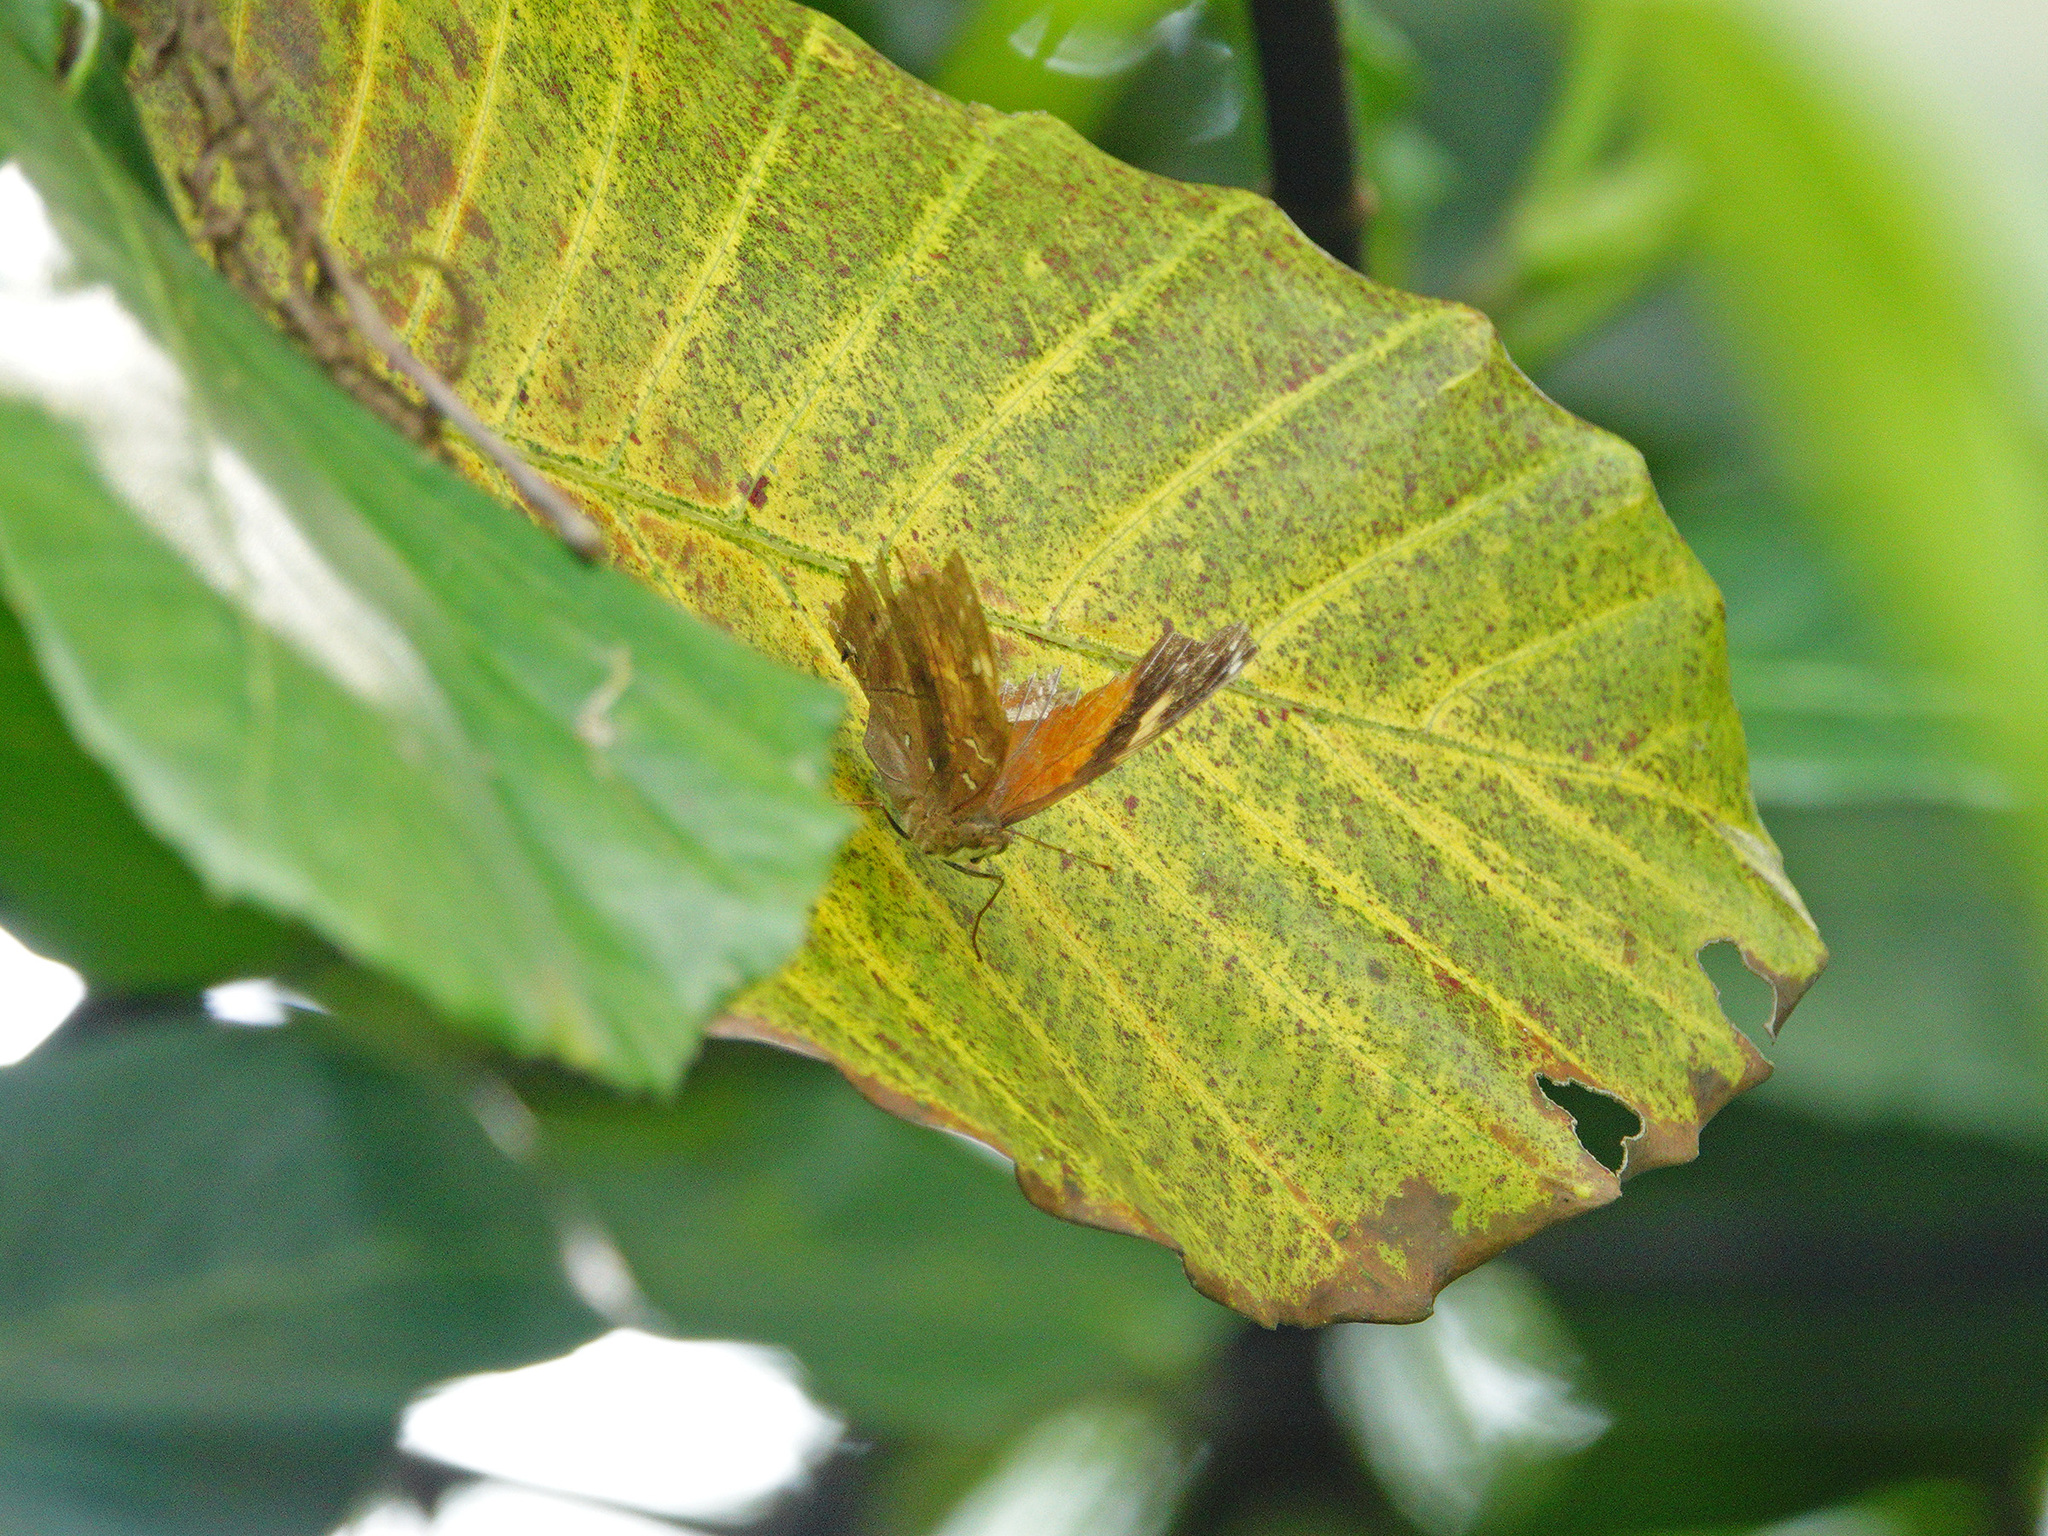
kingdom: Animalia
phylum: Arthropoda
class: Insecta
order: Lepidoptera
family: Nymphalidae
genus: Doleschallia
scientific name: Doleschallia bisaltide
